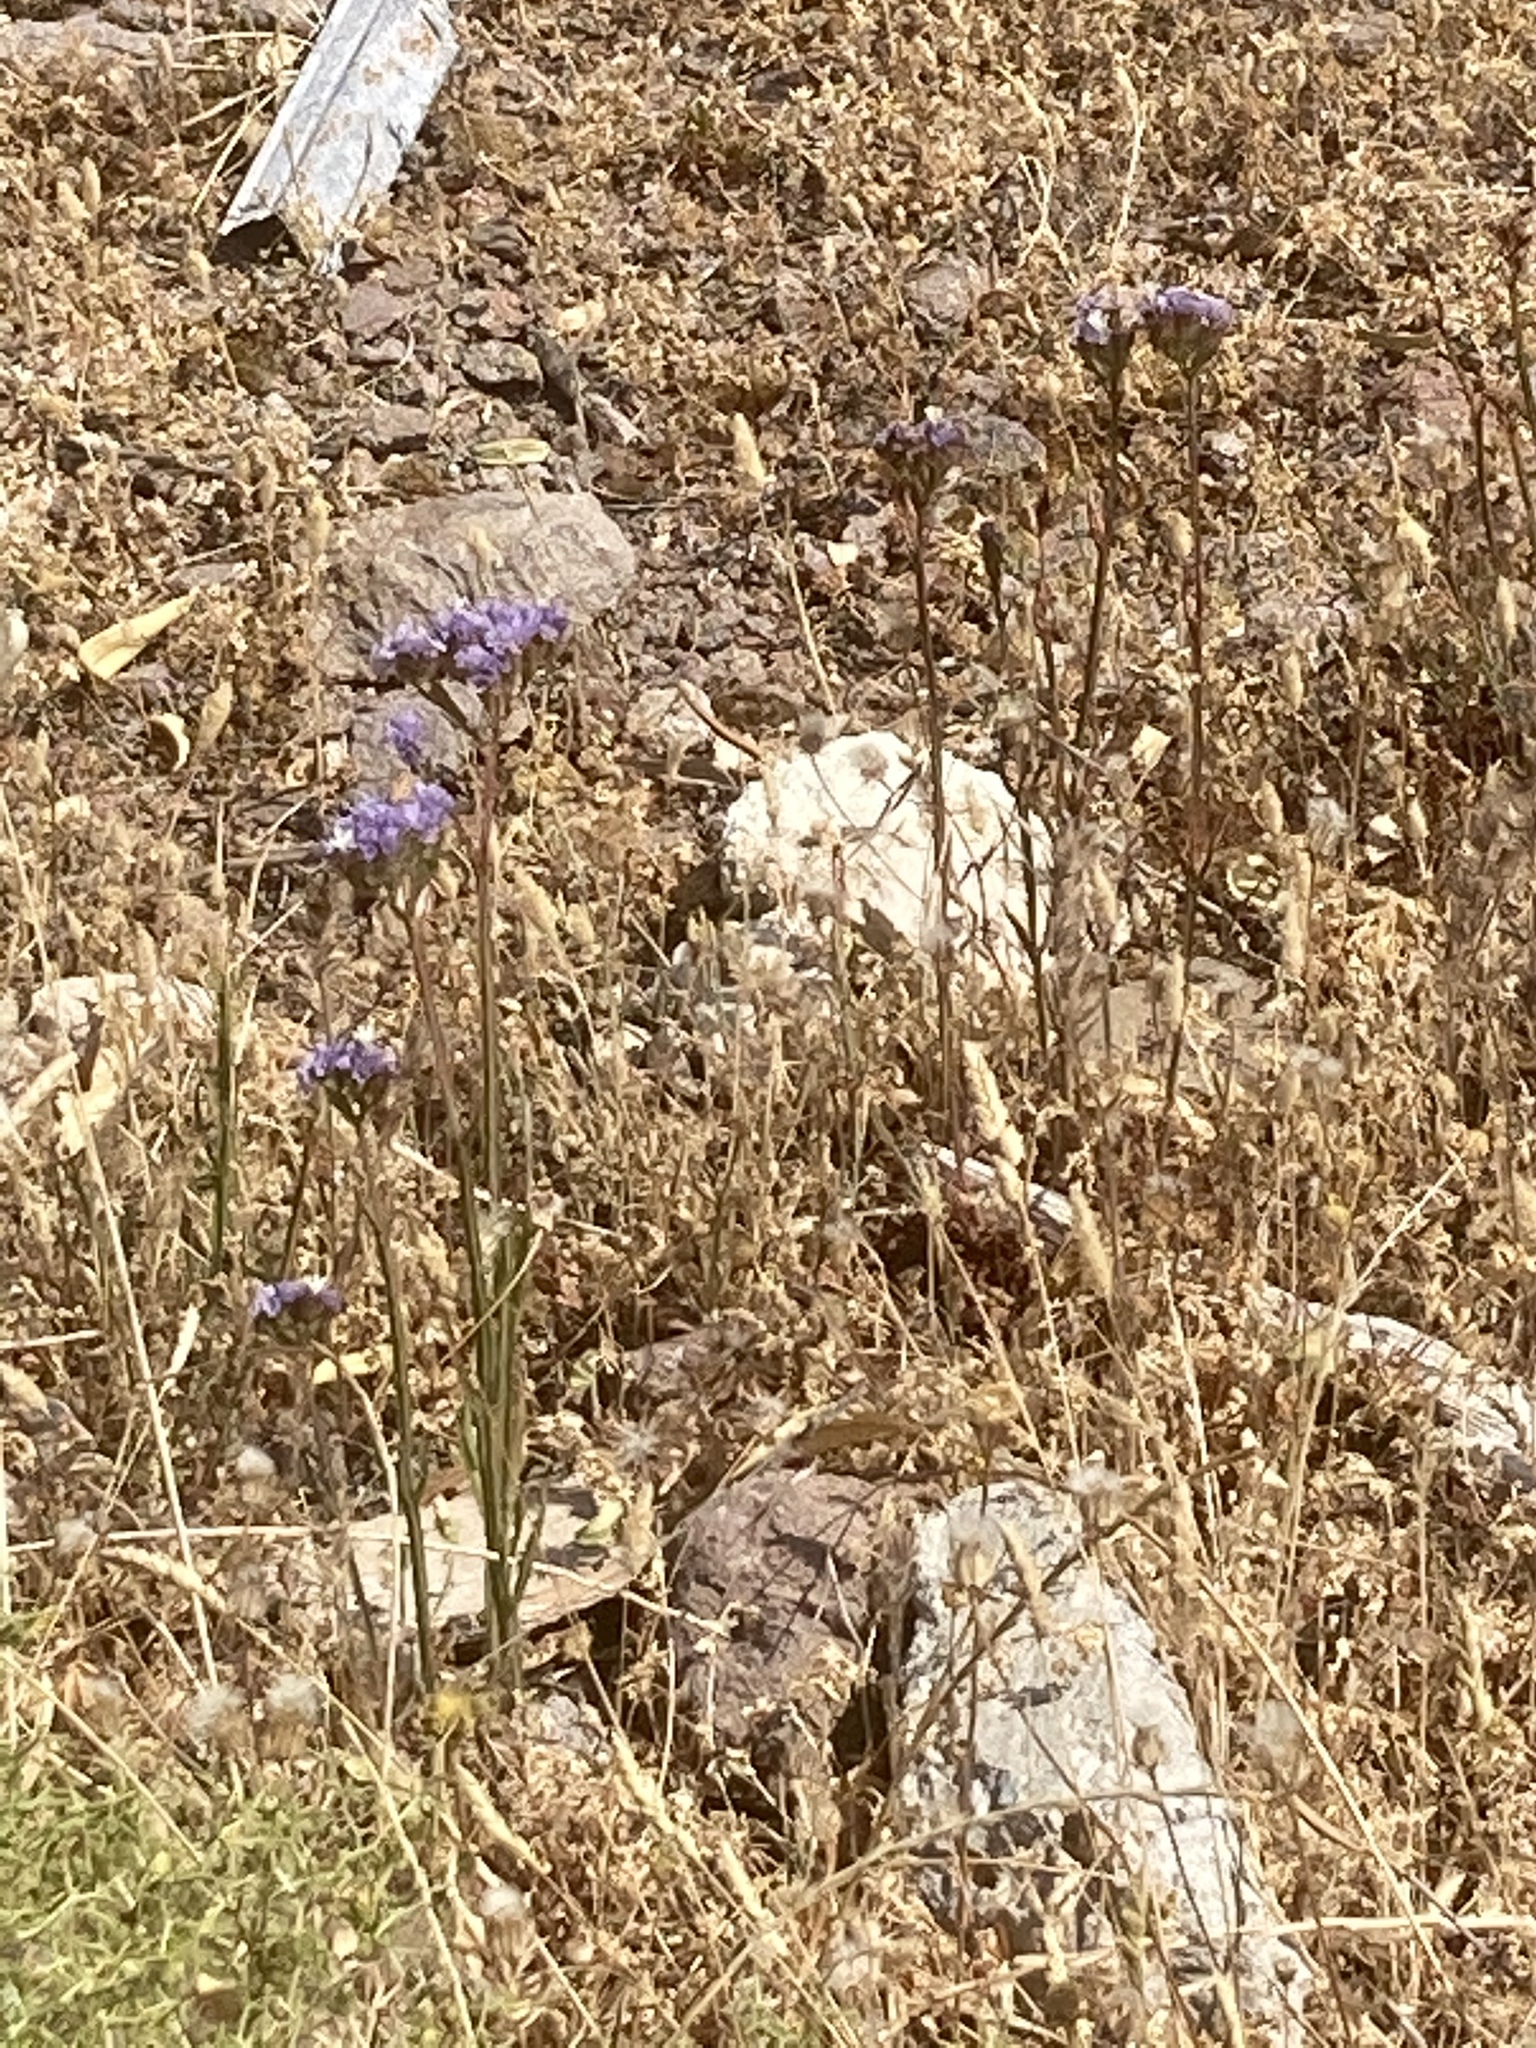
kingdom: Plantae
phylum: Tracheophyta
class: Magnoliopsida
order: Caryophyllales
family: Plumbaginaceae
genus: Limonium
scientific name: Limonium sinuatum
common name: Statice
